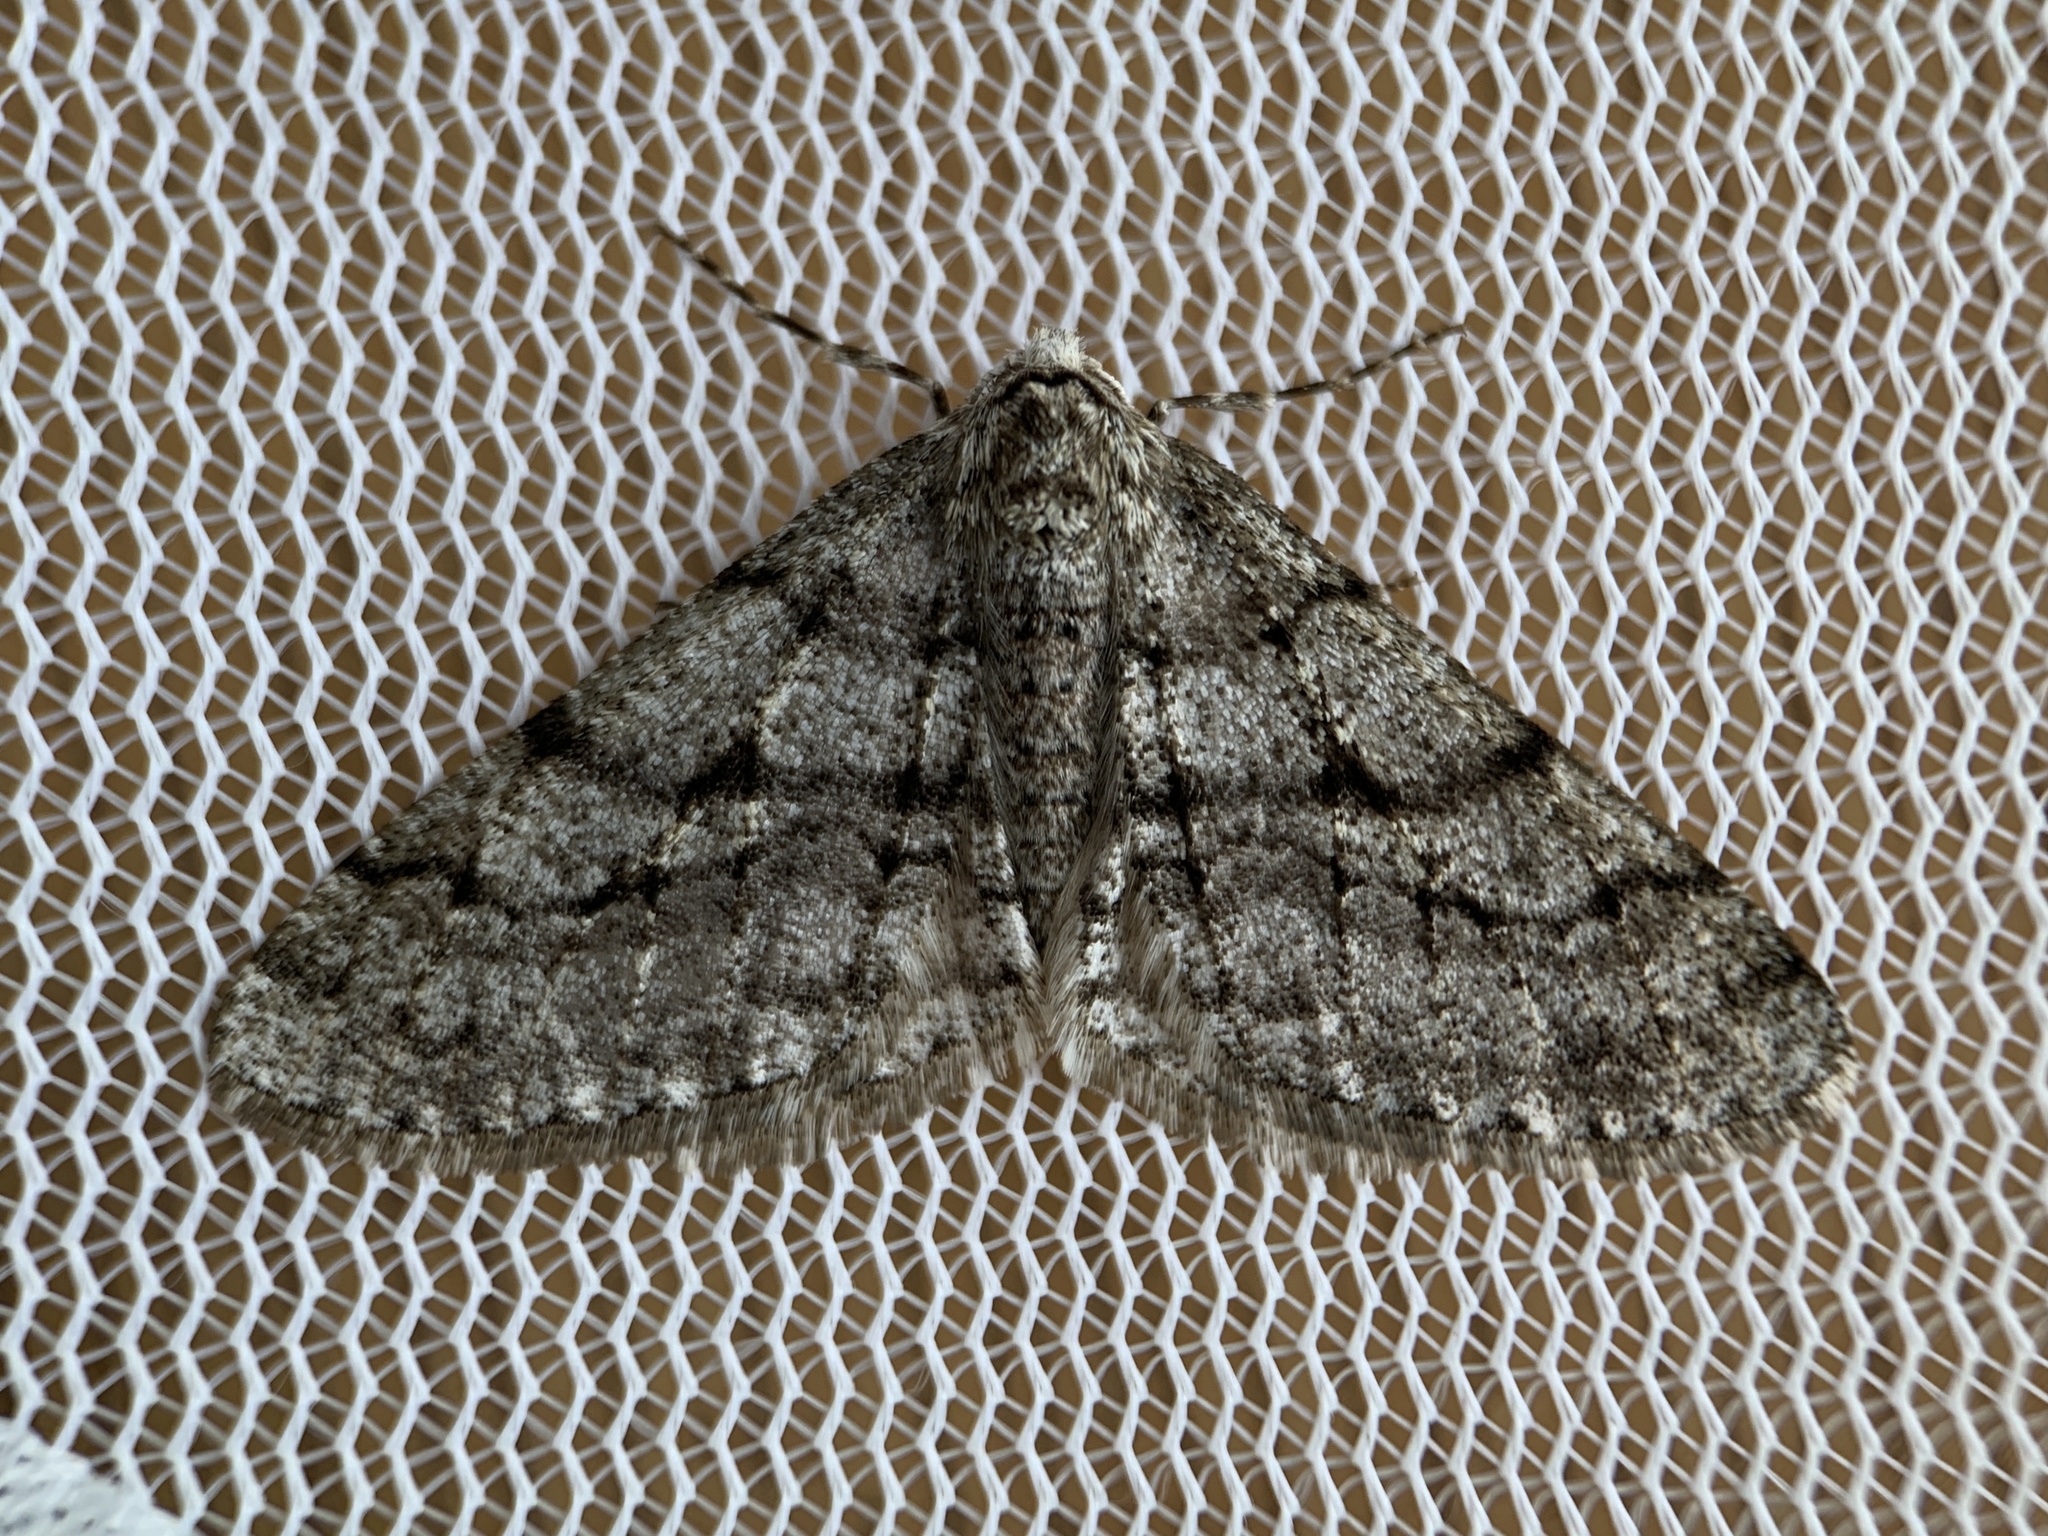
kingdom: Animalia
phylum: Arthropoda
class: Insecta
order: Lepidoptera
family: Geometridae
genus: Phigalia
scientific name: Phigalia titea
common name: Spiny looper
